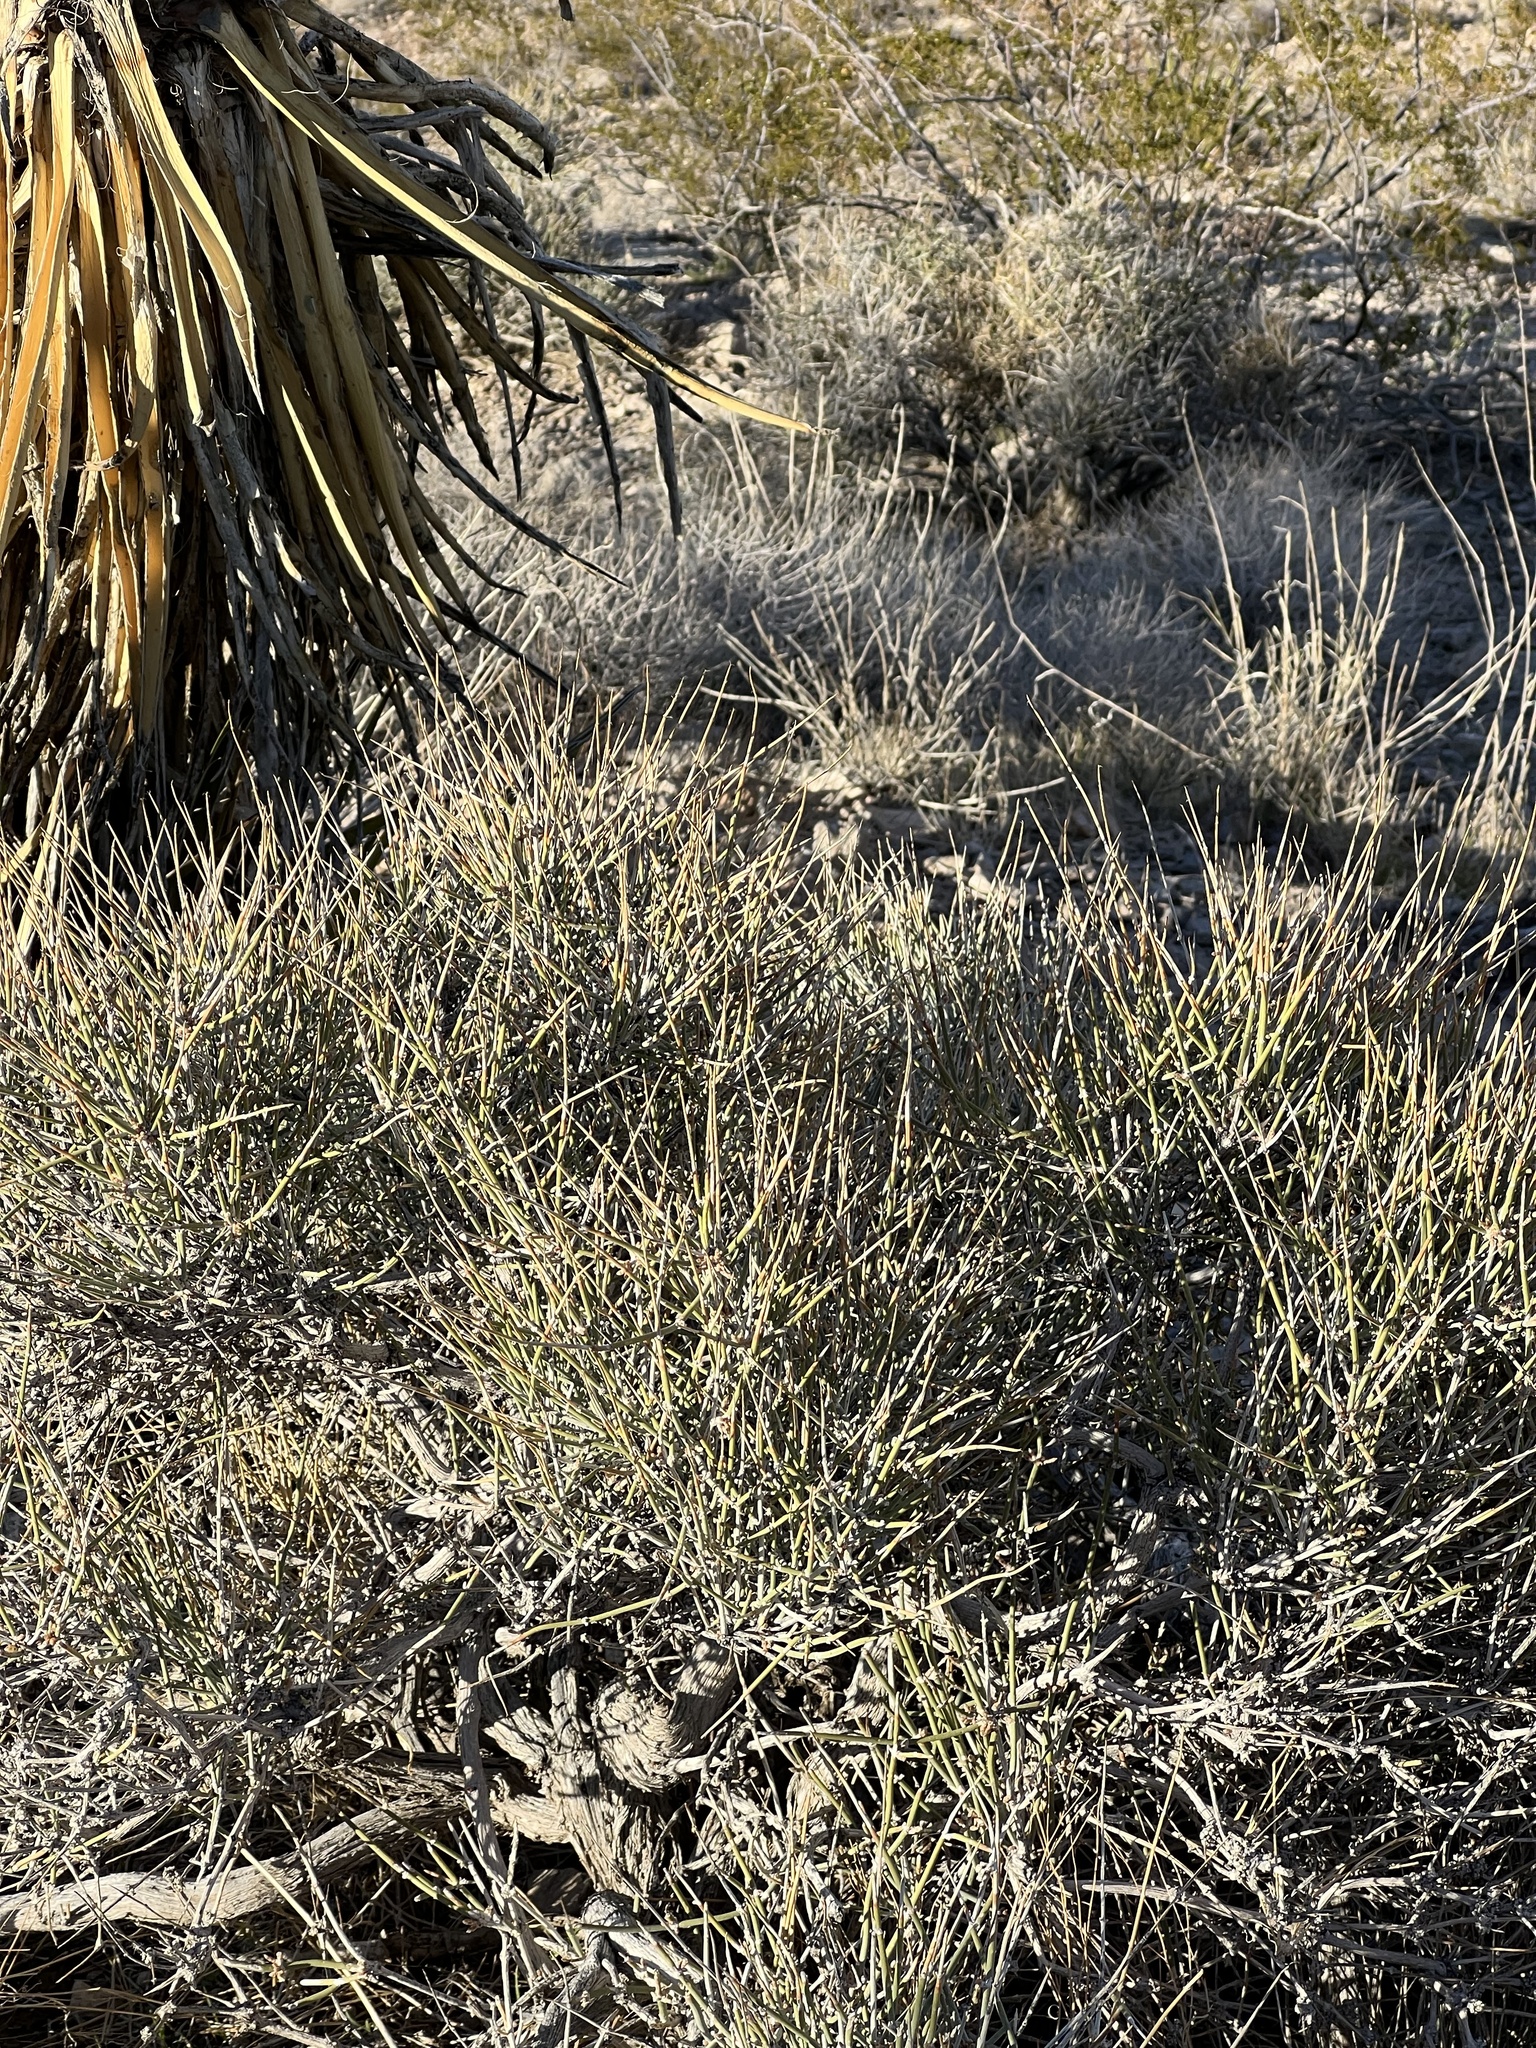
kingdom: Plantae
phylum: Tracheophyta
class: Gnetopsida
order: Ephedrales
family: Ephedraceae
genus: Ephedra
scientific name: Ephedra nevadensis
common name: Gray ephedra
